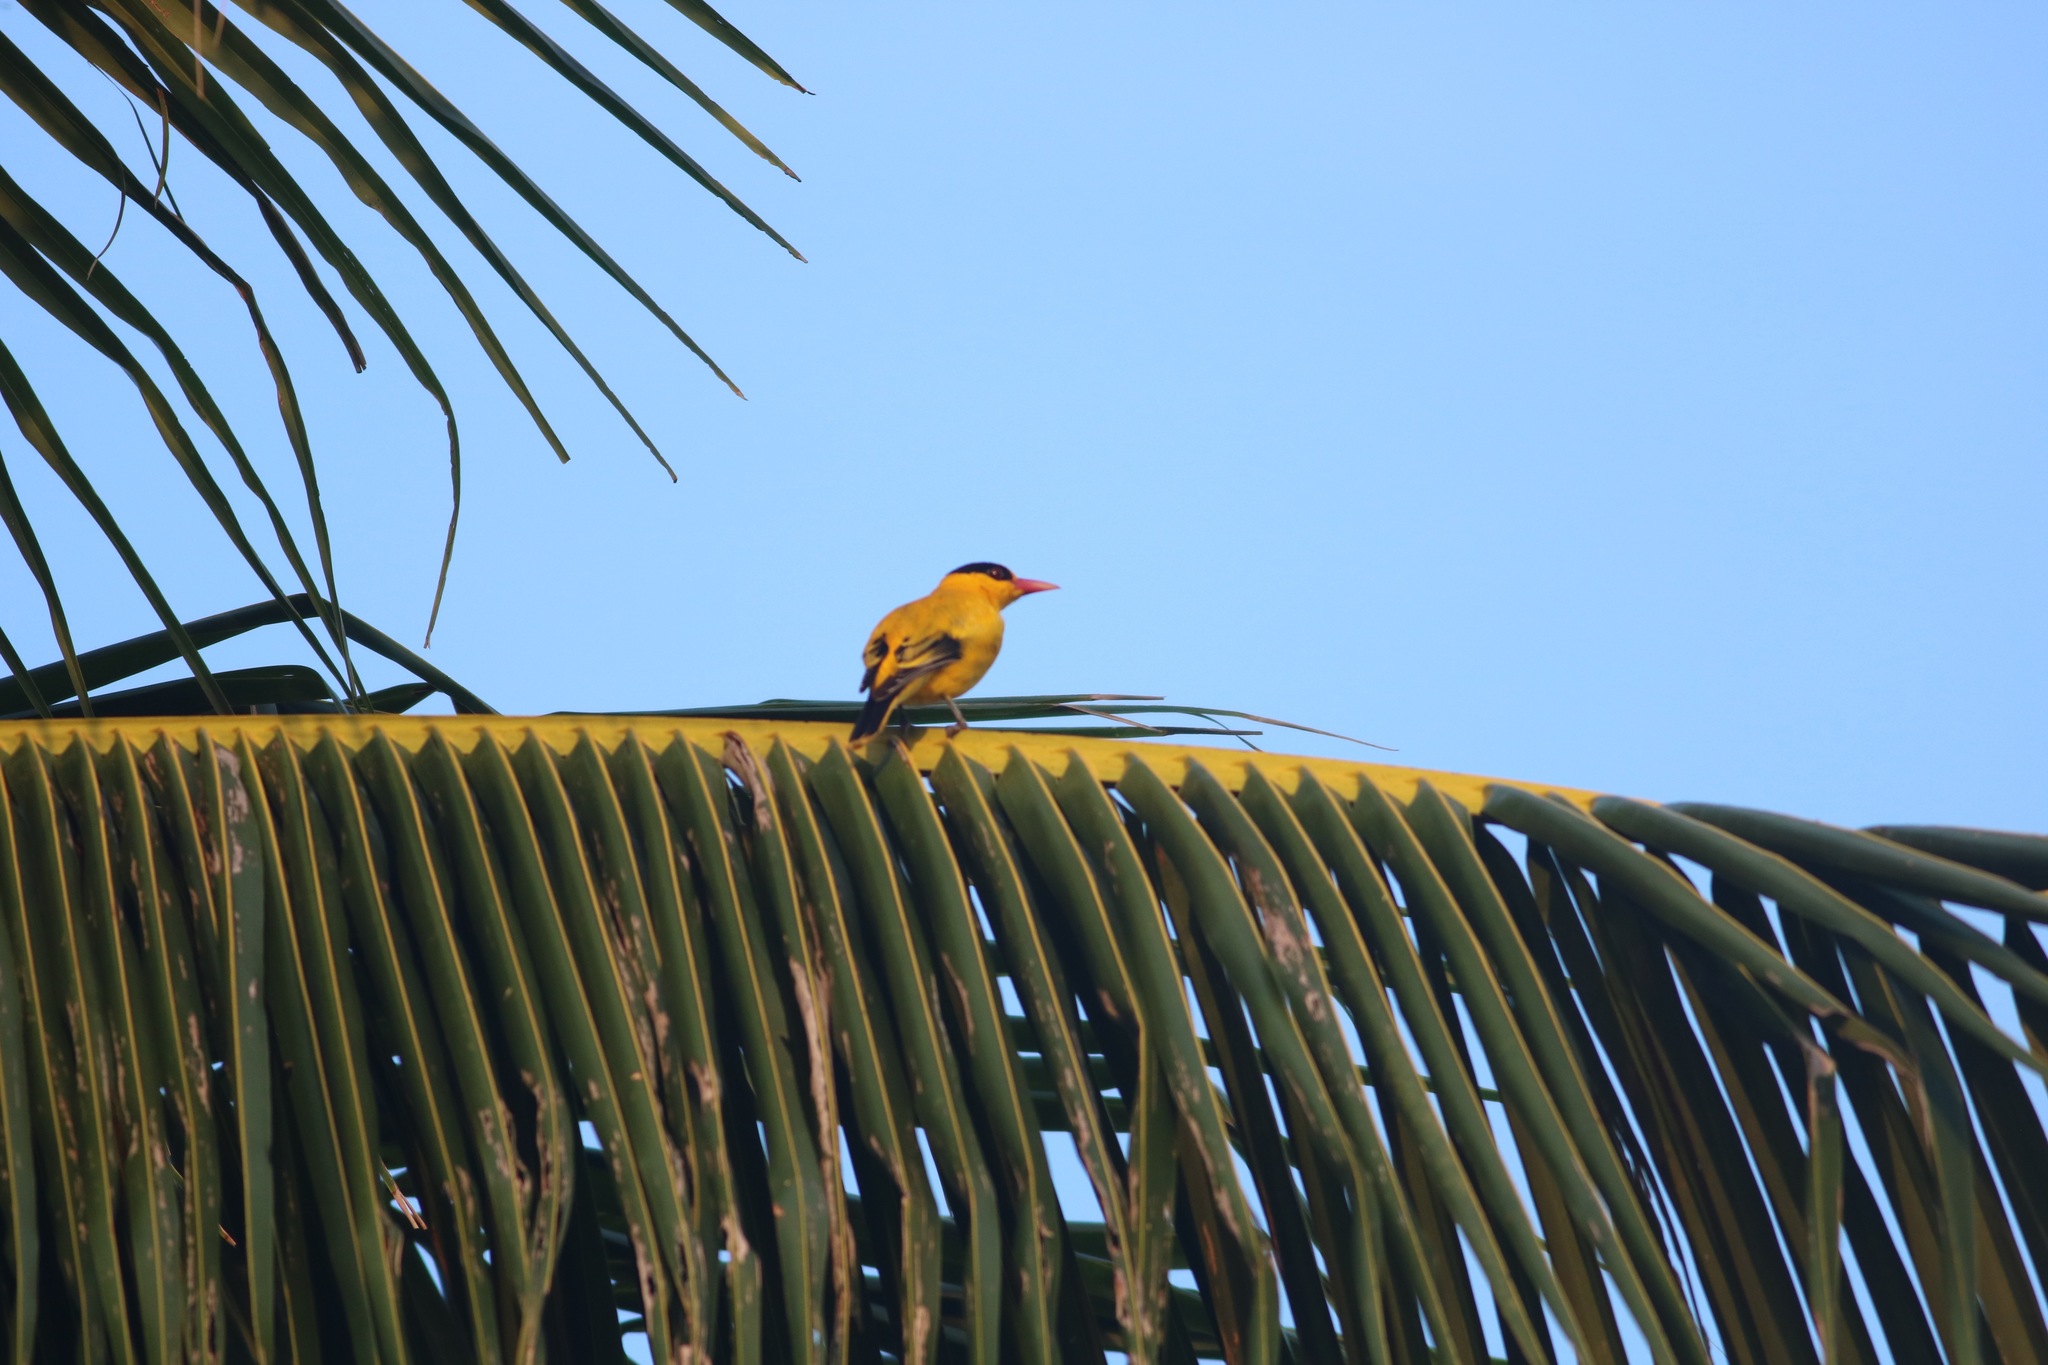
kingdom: Animalia
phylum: Chordata
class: Aves
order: Passeriformes
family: Oriolidae
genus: Oriolus
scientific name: Oriolus chinensis
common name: Black-naped oriole
